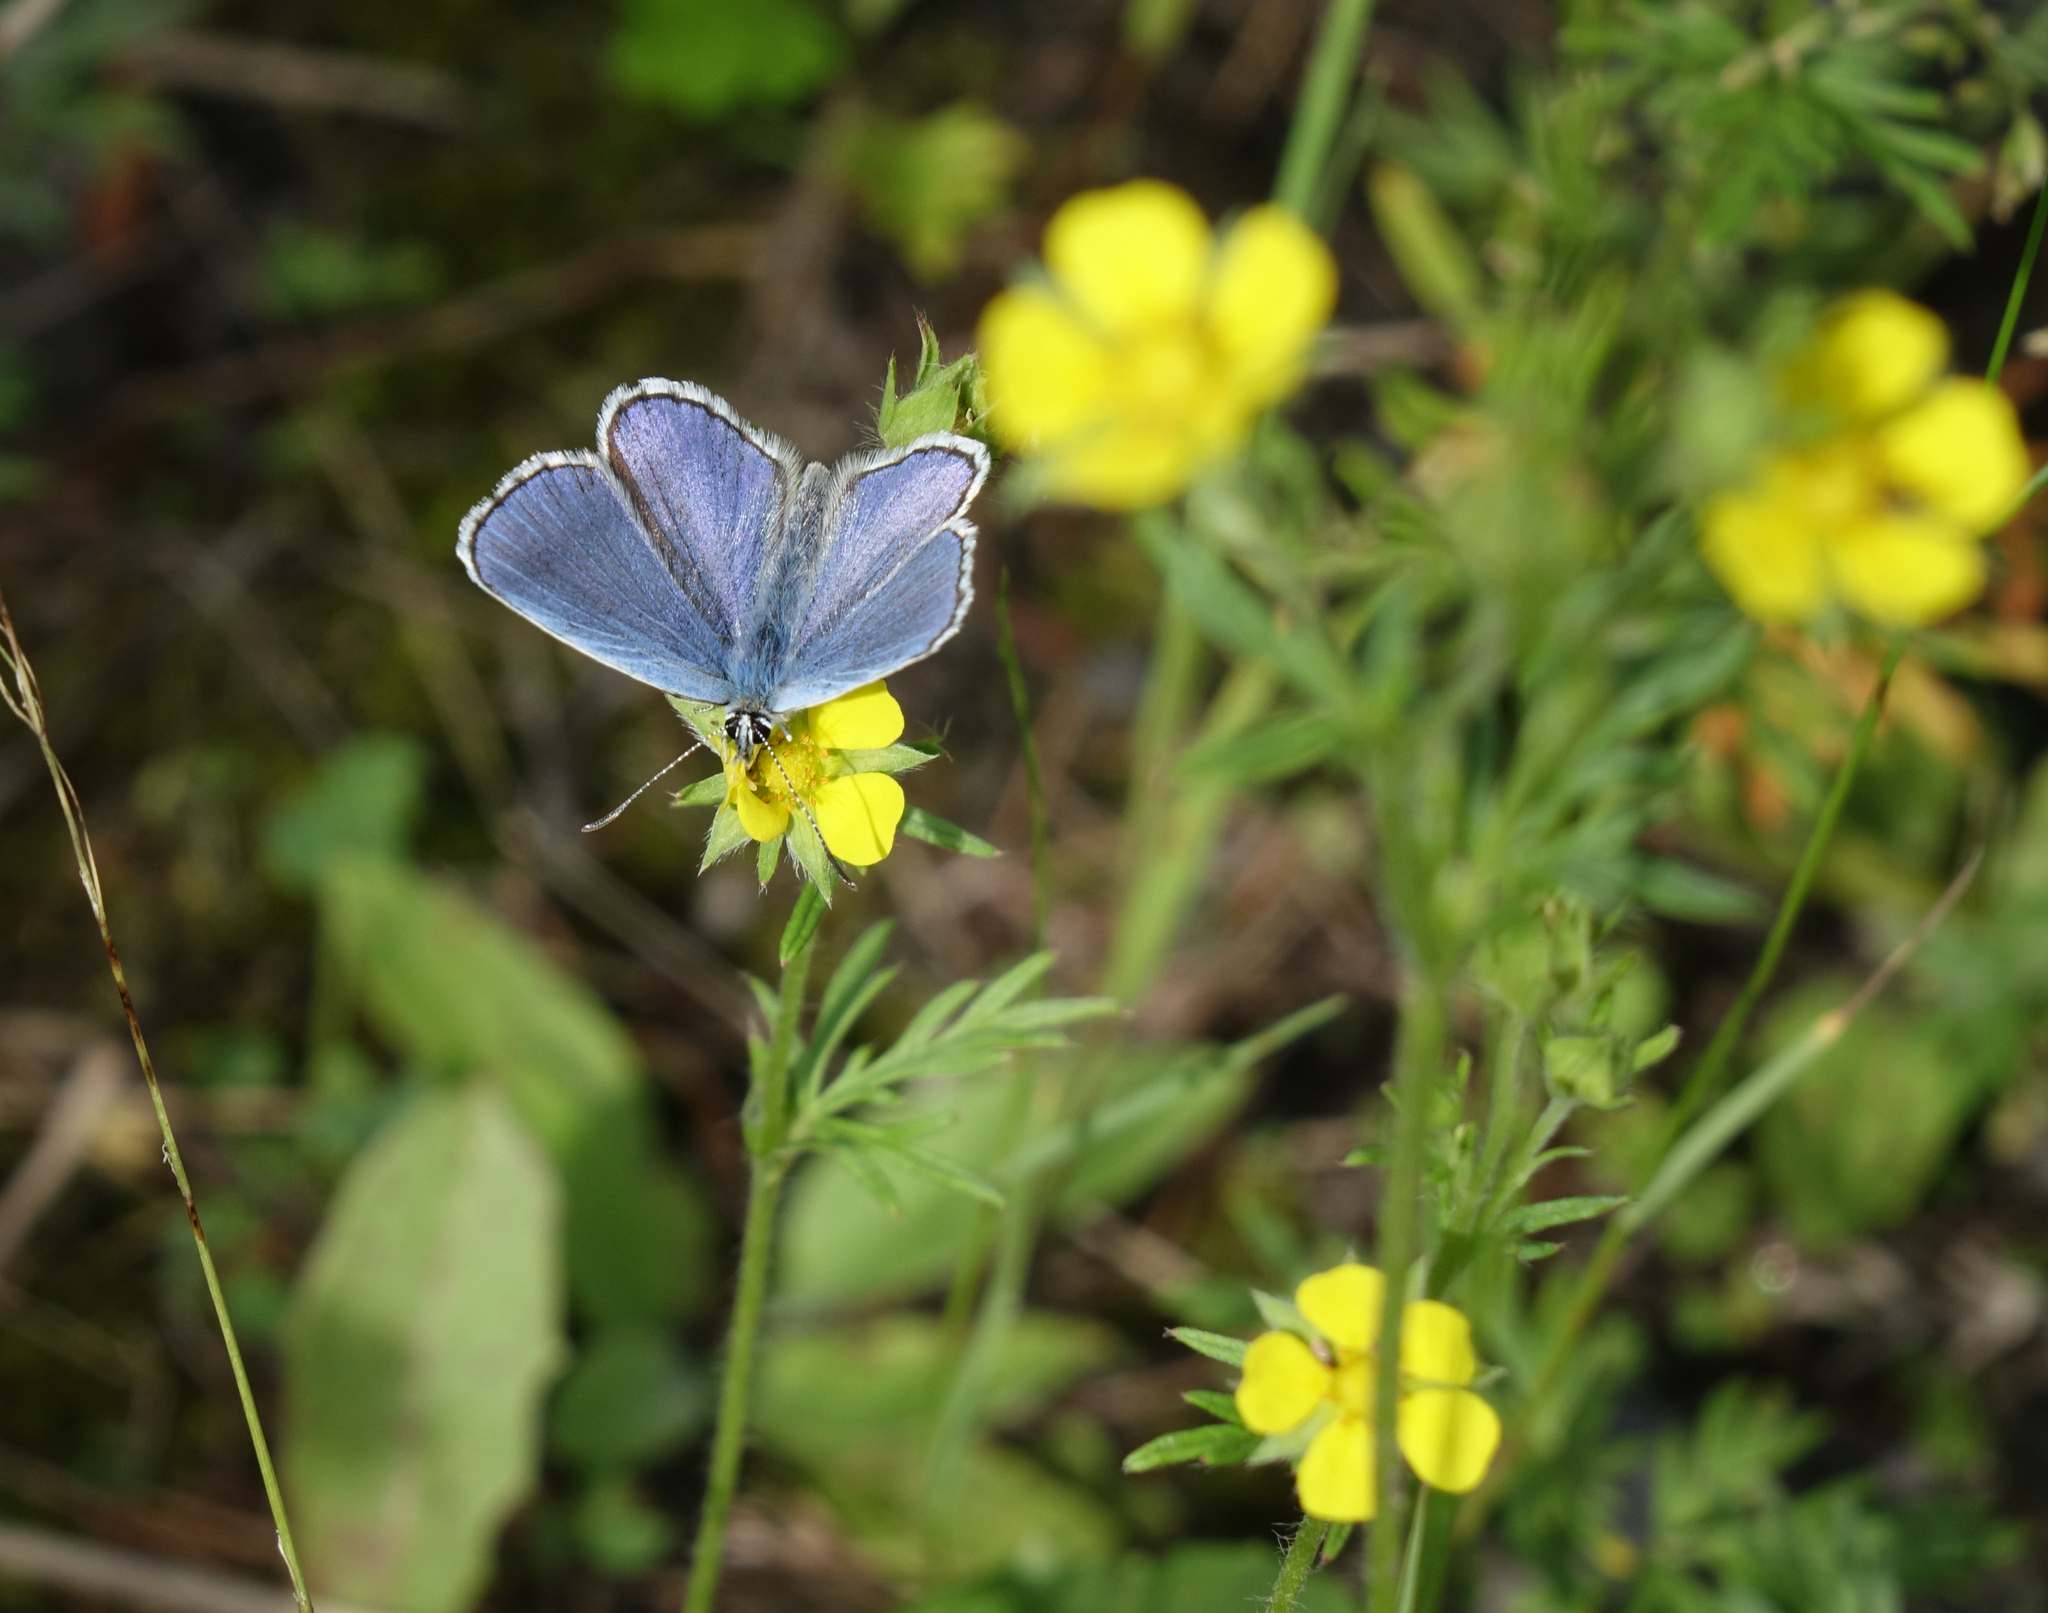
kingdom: Plantae
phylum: Tracheophyta
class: Magnoliopsida
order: Rosales
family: Rosaceae
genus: Potentilla
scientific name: Potentilla tergemina
